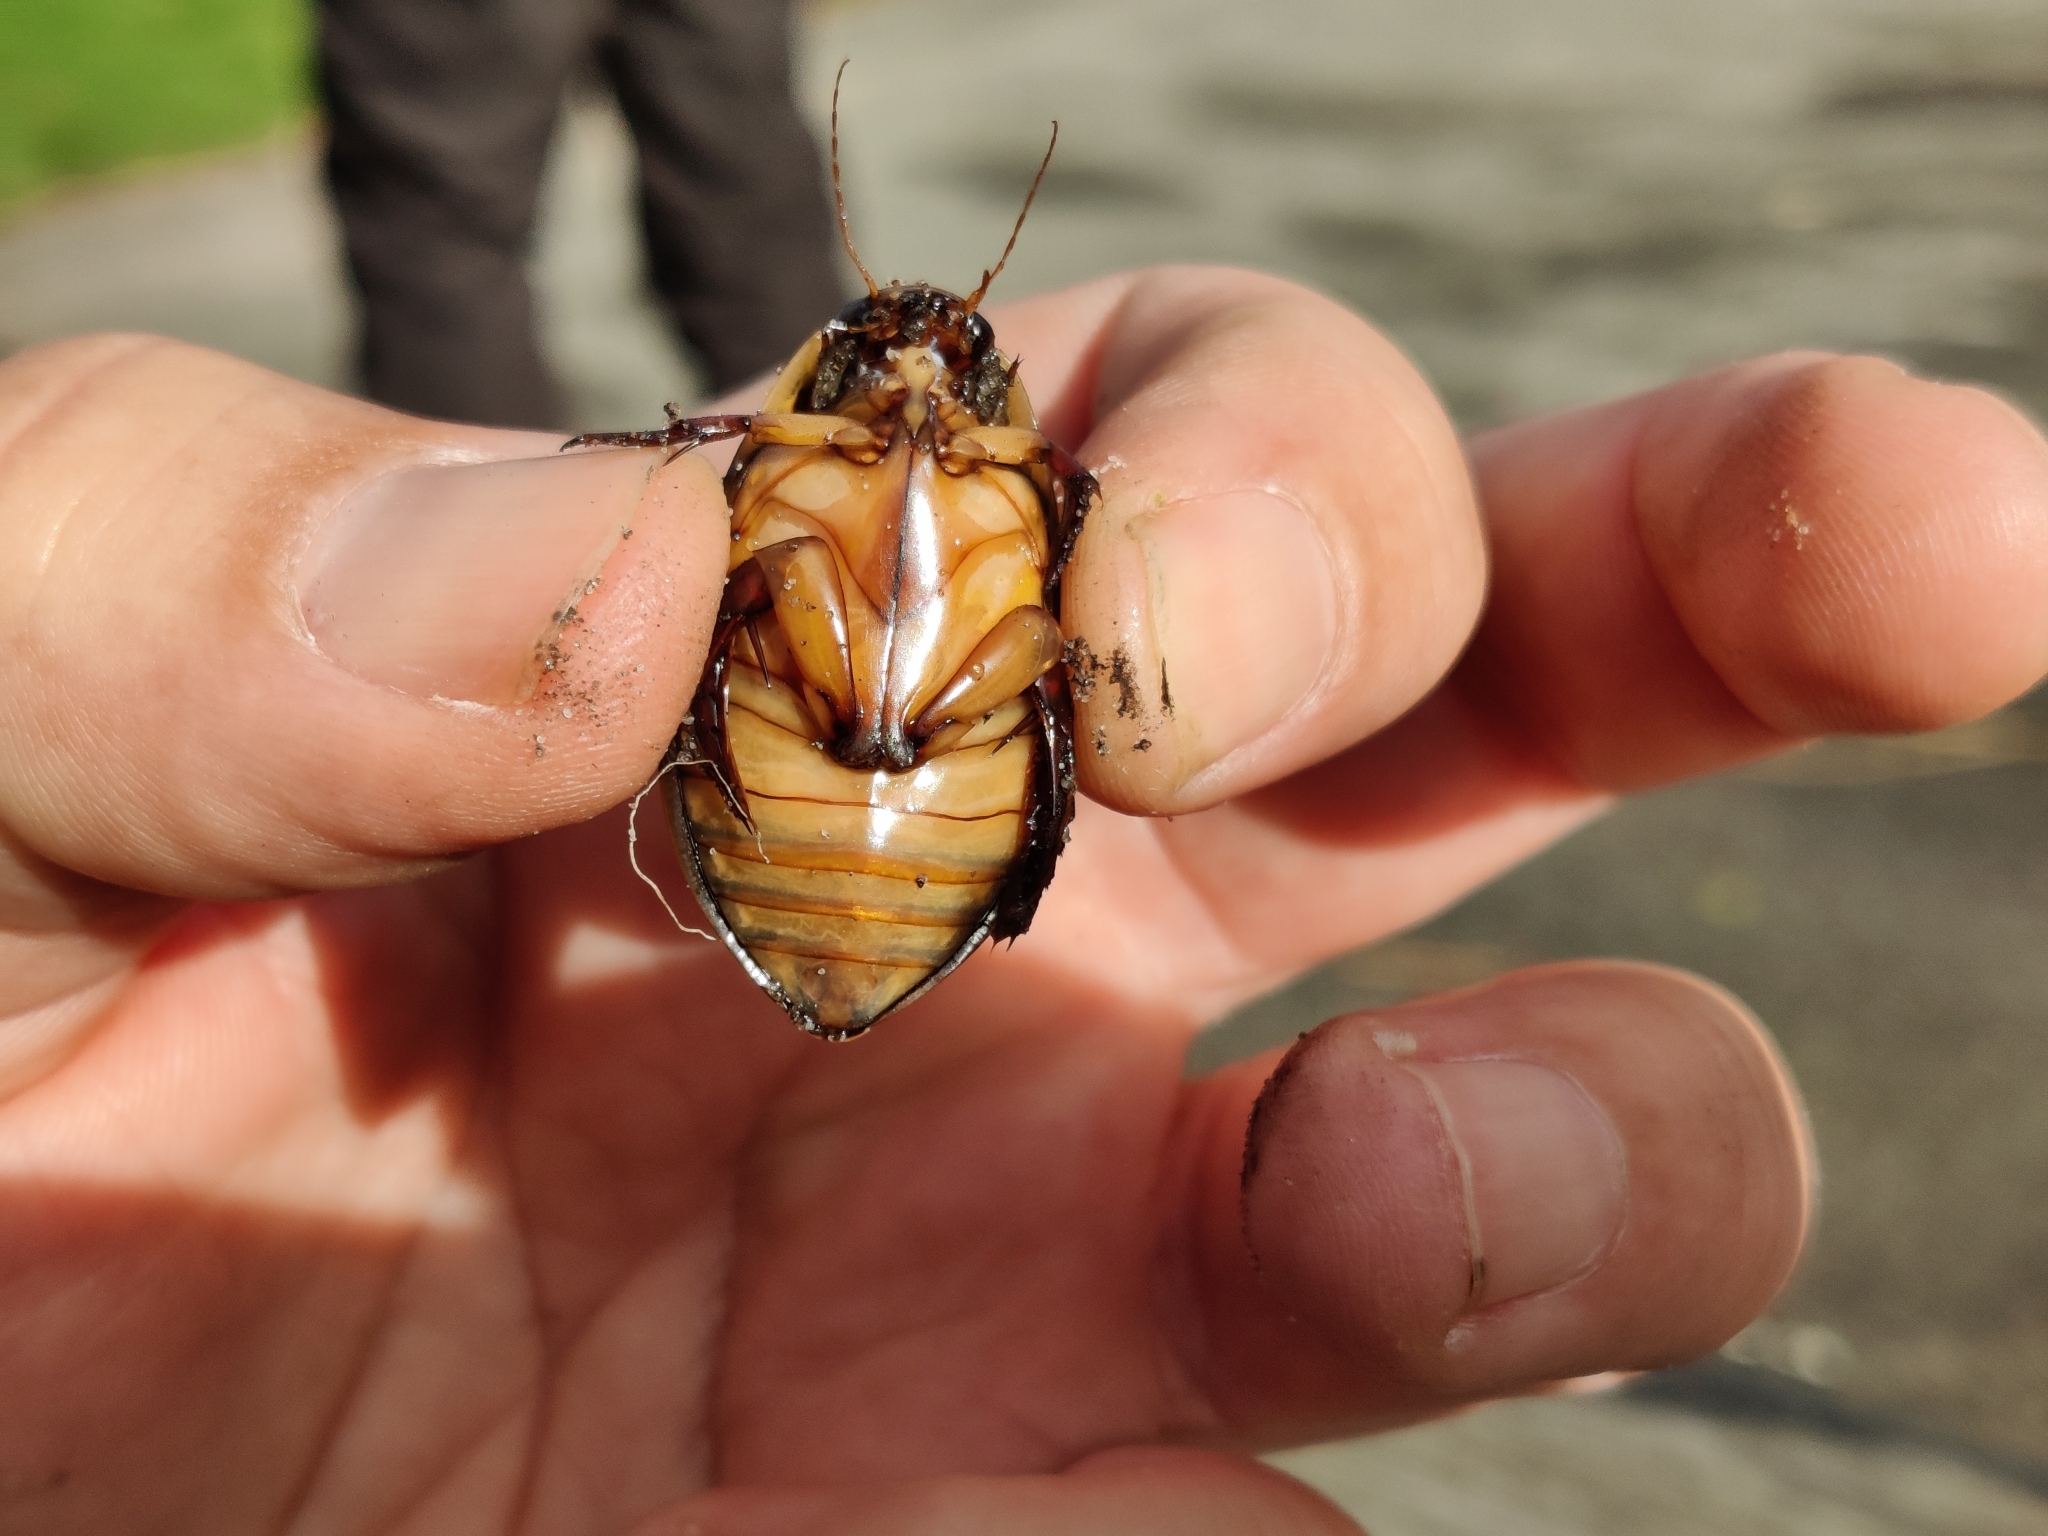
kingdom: Animalia
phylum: Arthropoda
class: Insecta
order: Coleoptera
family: Dytiscidae
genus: Cybister
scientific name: Cybister lateralimarginalis
